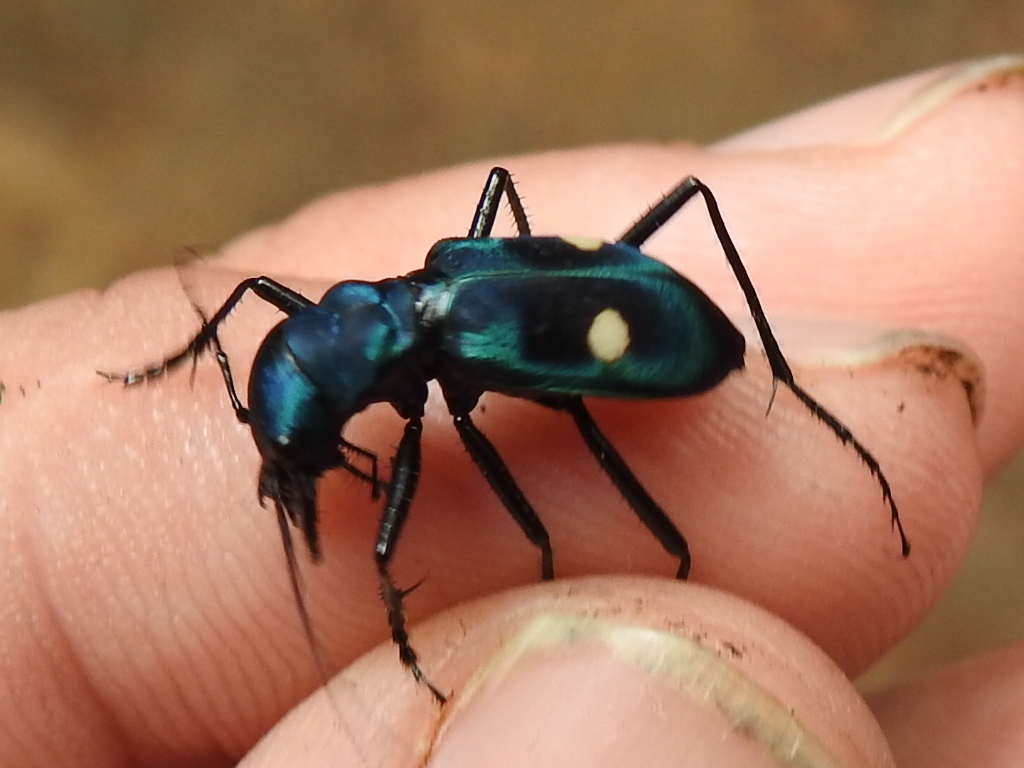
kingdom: Animalia
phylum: Arthropoda
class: Insecta
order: Coleoptera
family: Carabidae
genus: Pseudoxycheila
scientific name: Pseudoxycheila tarsalis
